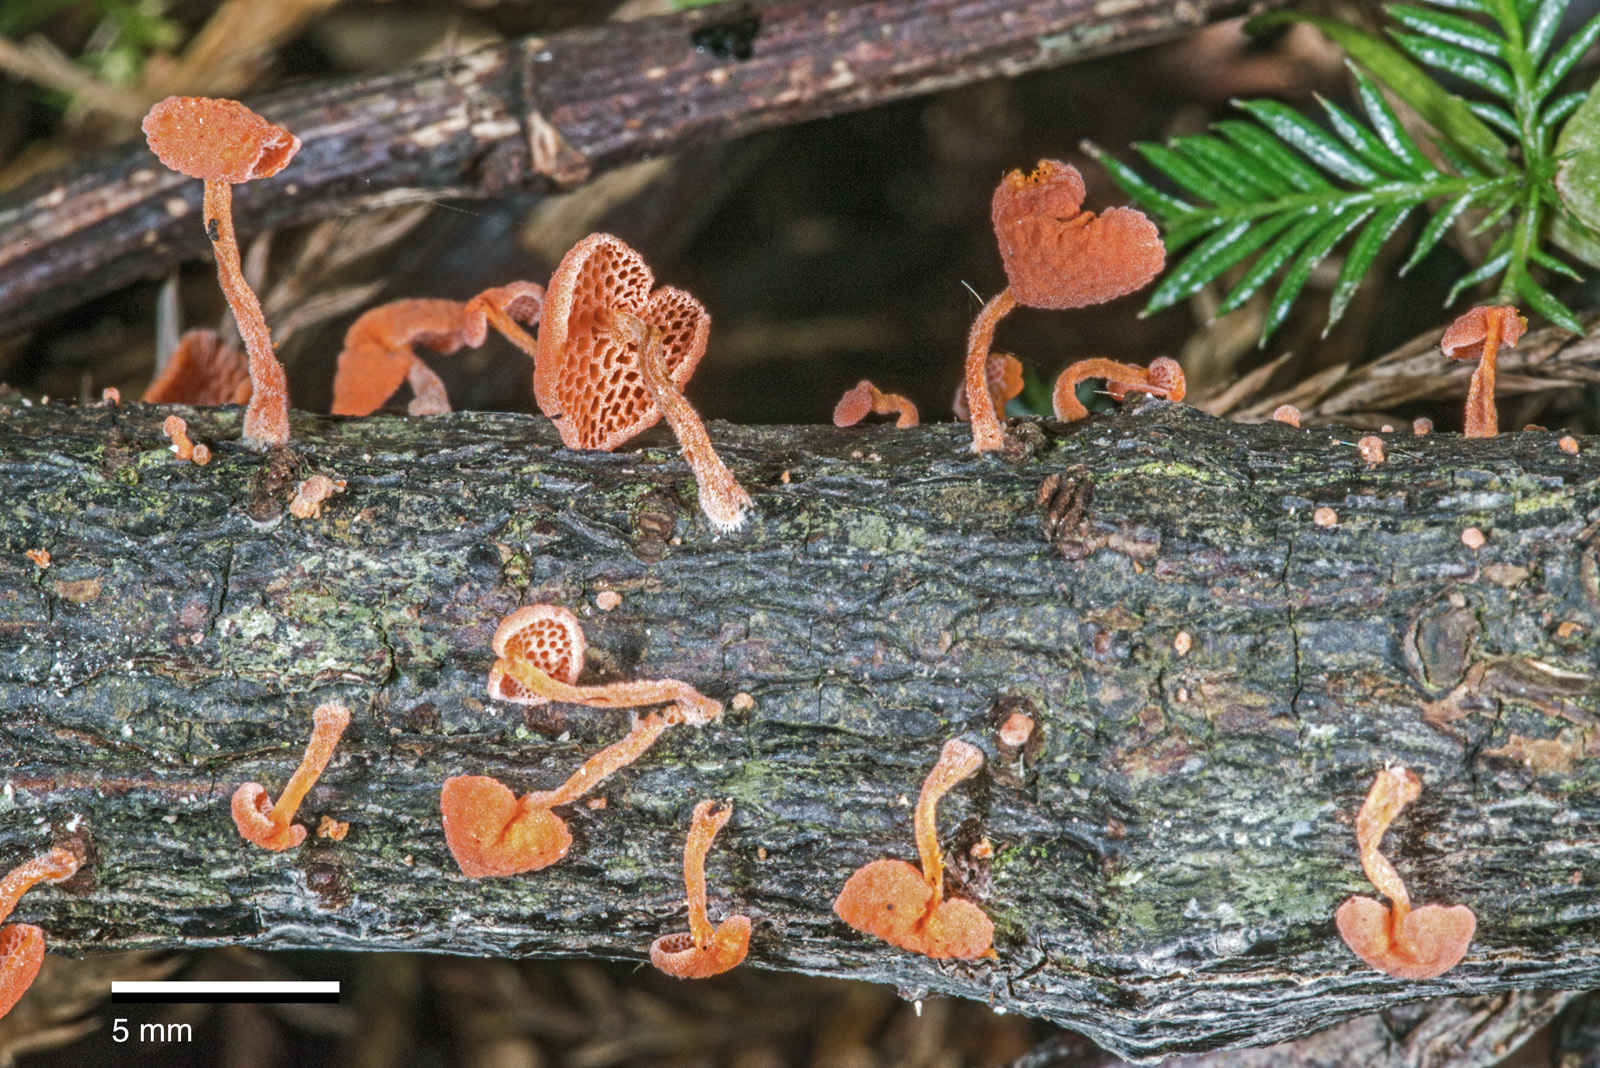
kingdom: Fungi
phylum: Basidiomycota
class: Agaricomycetes
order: Agaricales
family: Mycenaceae
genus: Favolaschia
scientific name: Favolaschia claudopus
